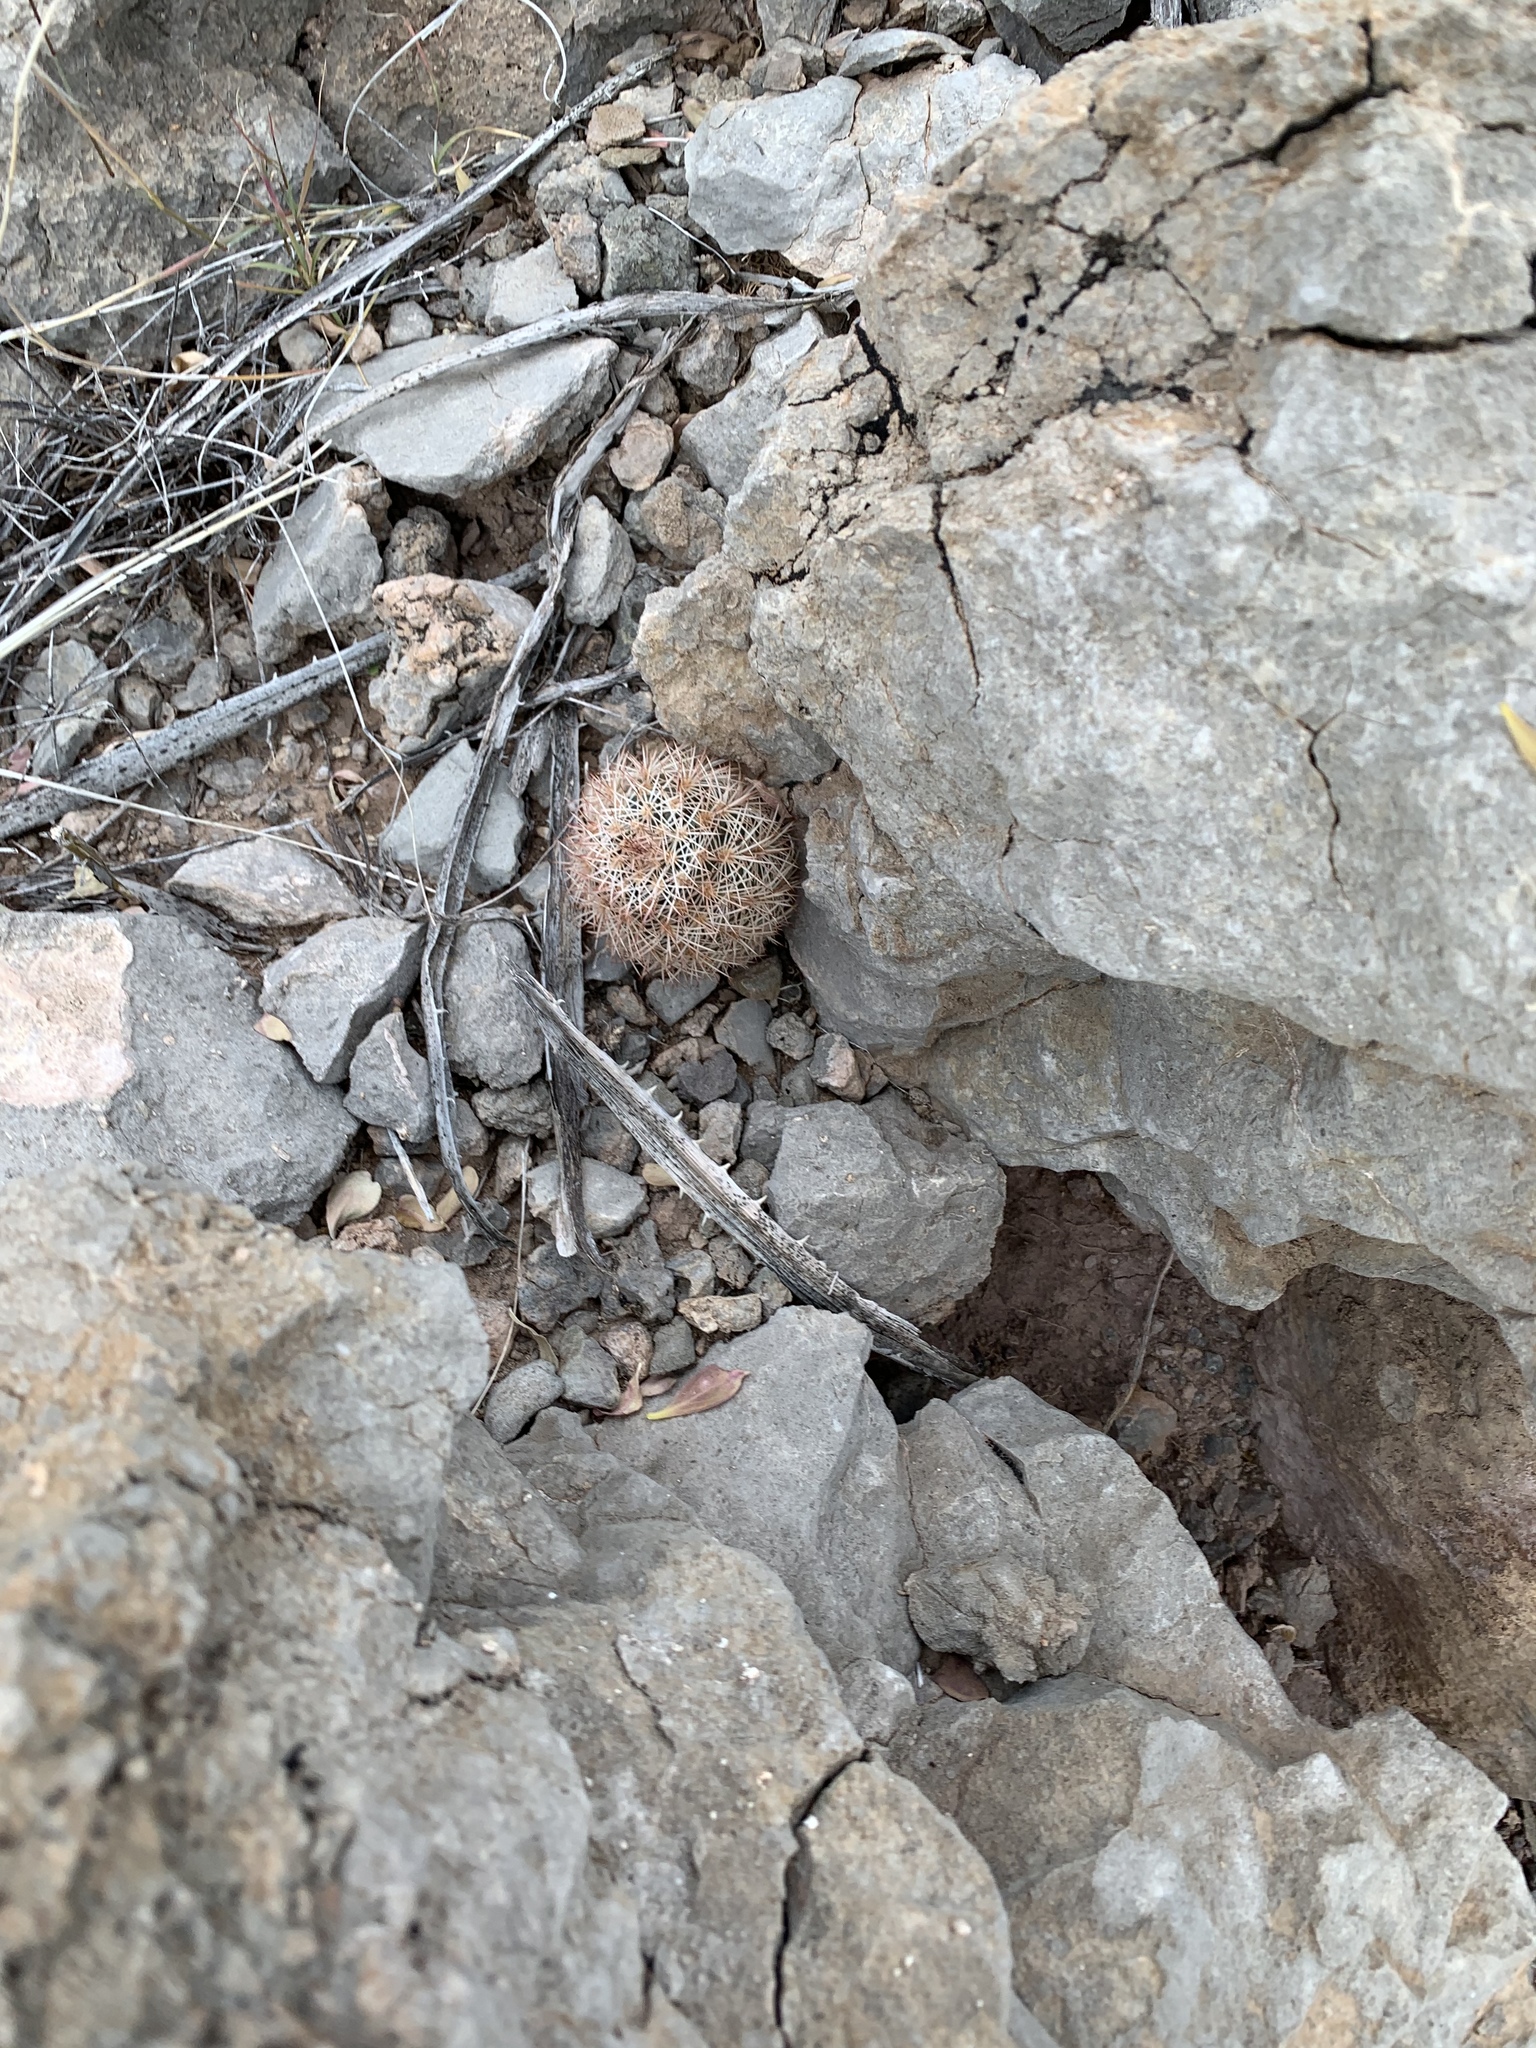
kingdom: Plantae
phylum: Tracheophyta
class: Magnoliopsida
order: Caryophyllales
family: Cactaceae
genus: Echinocereus
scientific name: Echinocereus dasyacanthus
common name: Spiny hedgehog cactus
